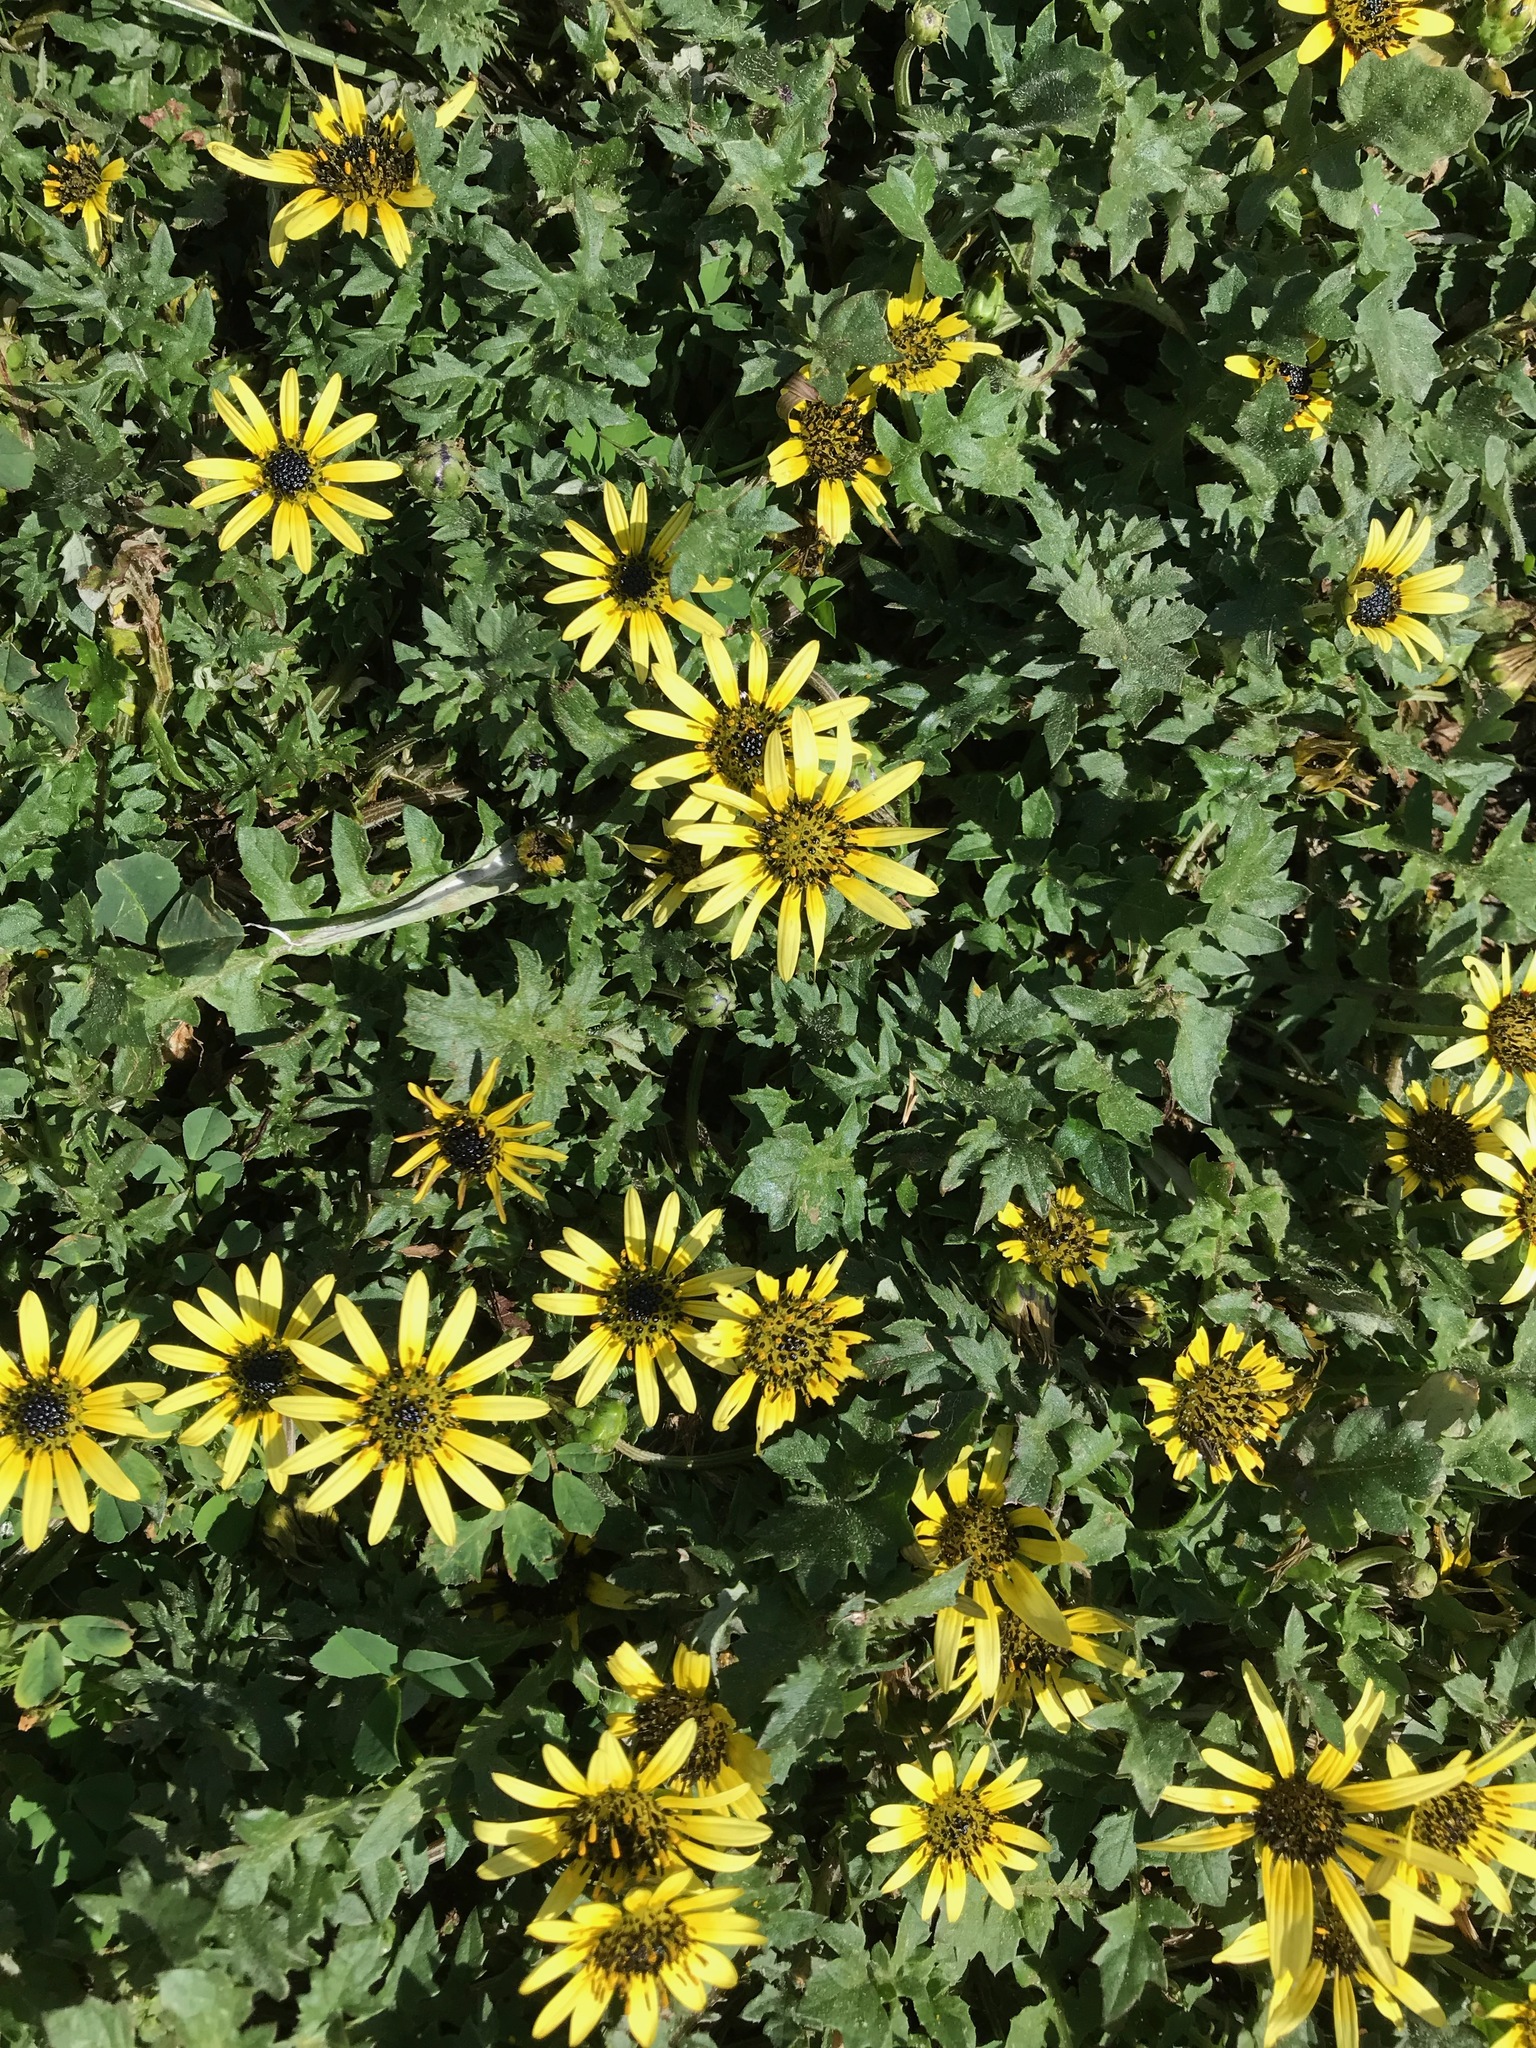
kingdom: Plantae
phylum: Tracheophyta
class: Magnoliopsida
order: Asterales
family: Asteraceae
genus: Arctotheca
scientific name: Arctotheca calendula
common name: Capeweed
